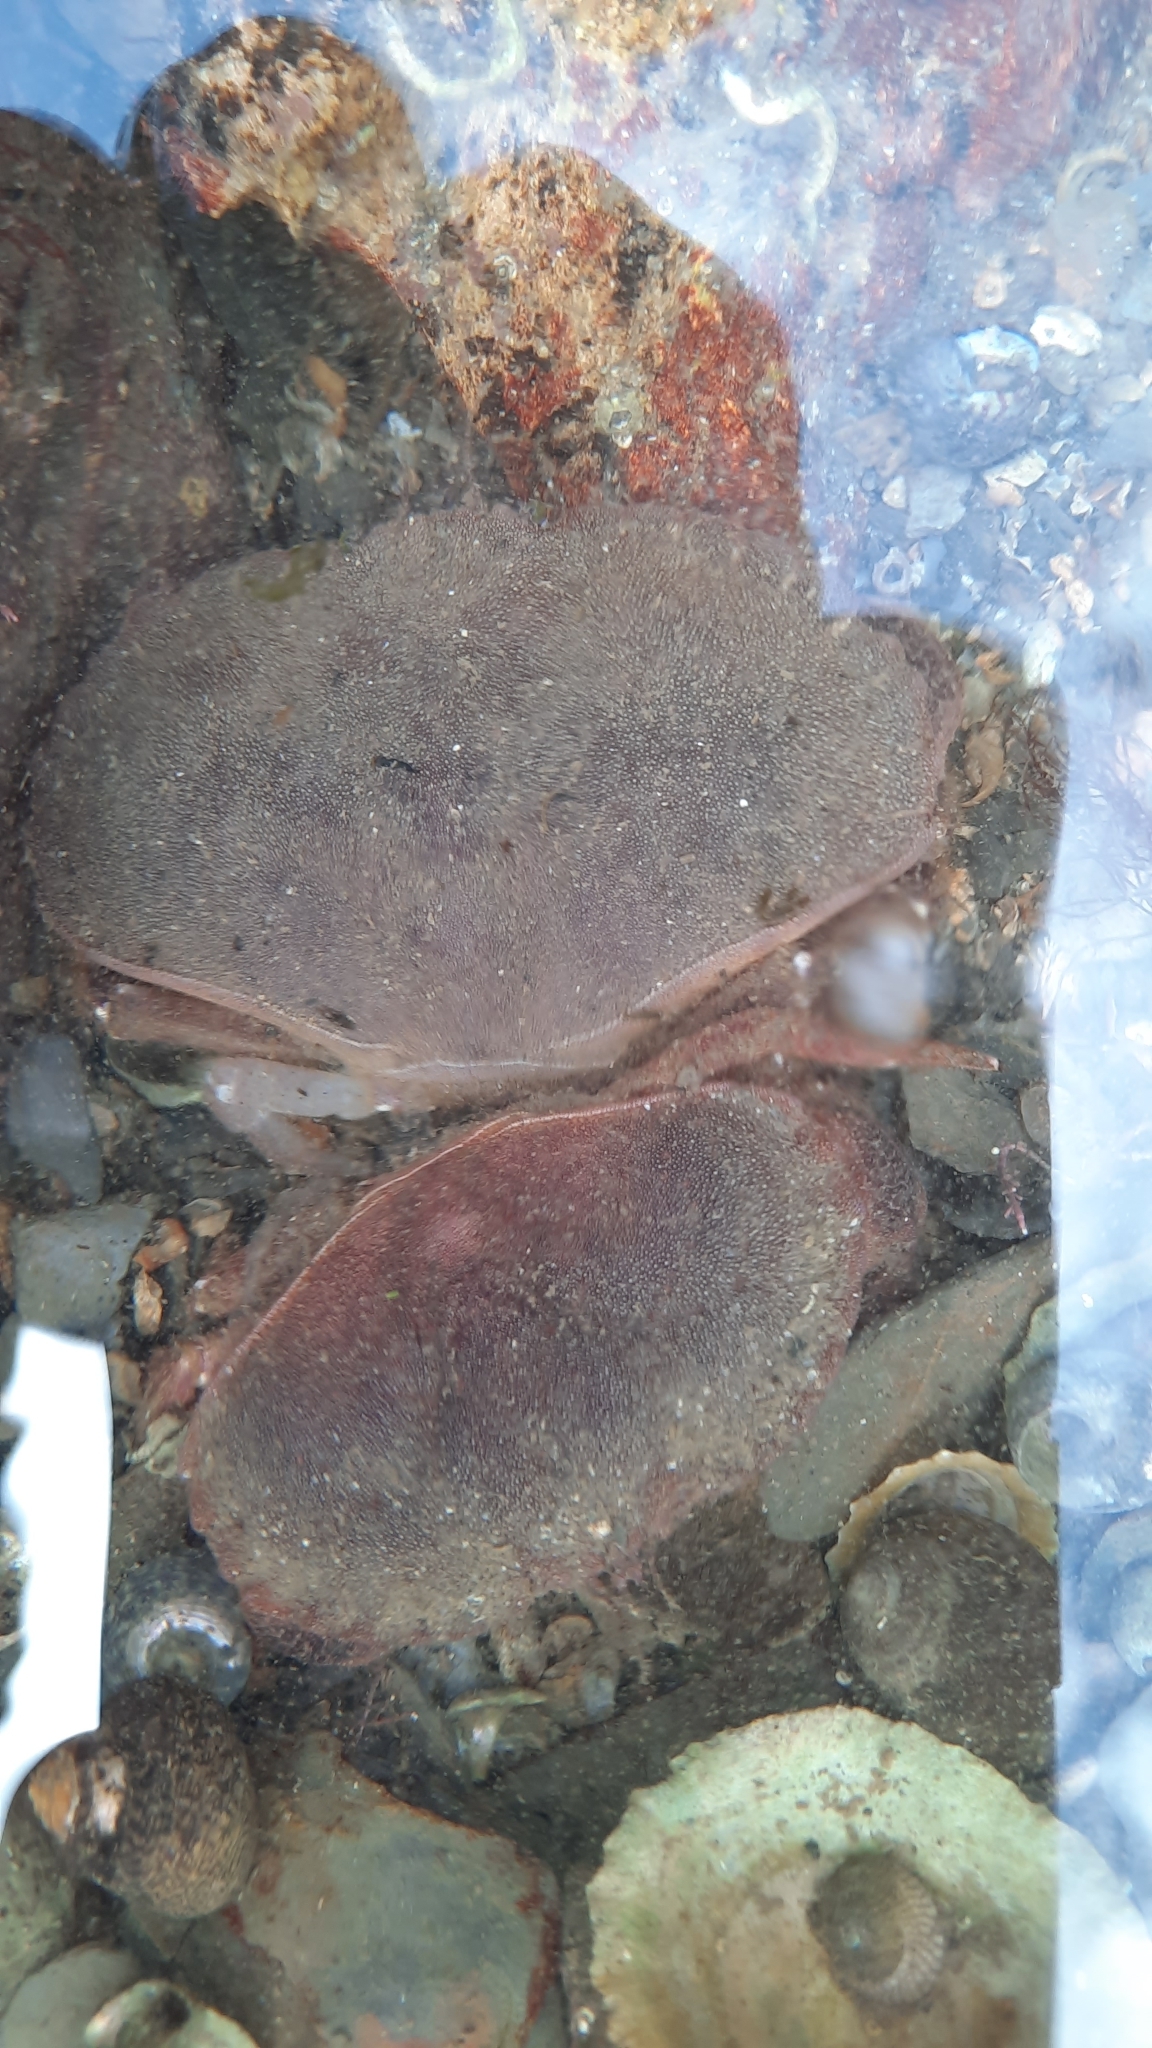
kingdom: Animalia
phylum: Arthropoda
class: Malacostraca
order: Decapoda
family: Cancridae
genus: Cancer
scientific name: Cancer pagurus
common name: Edible crab
